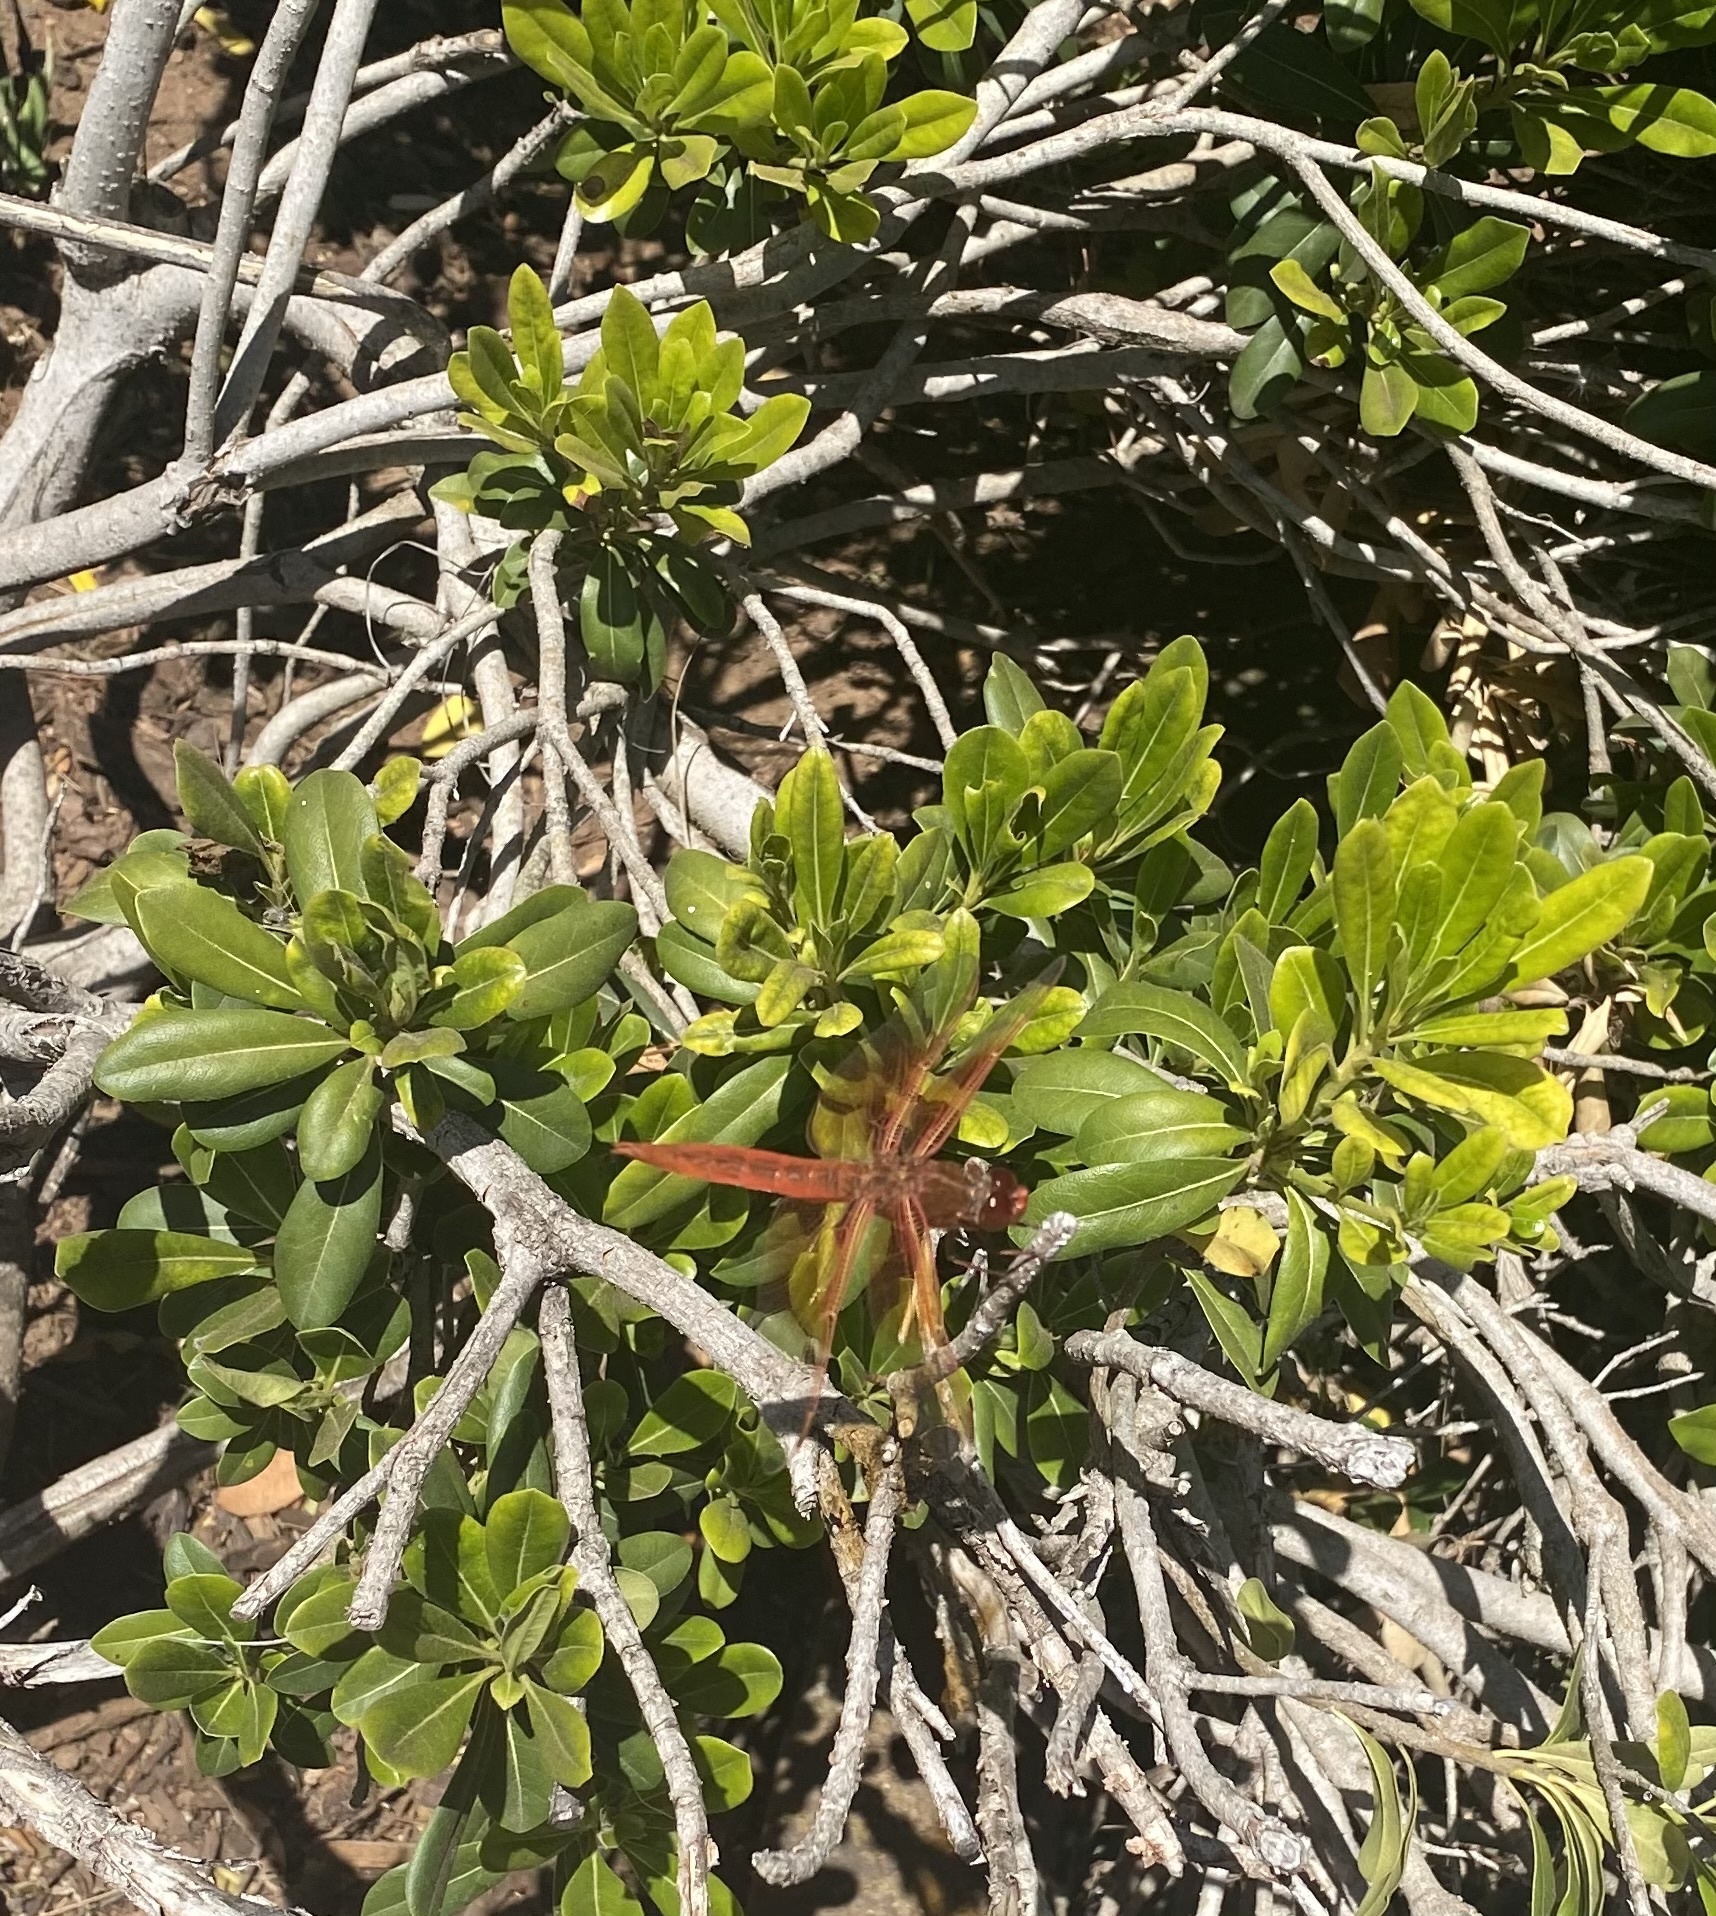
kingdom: Animalia
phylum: Arthropoda
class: Insecta
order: Odonata
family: Libellulidae
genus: Libellula
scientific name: Libellula saturata
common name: Flame skimmer
